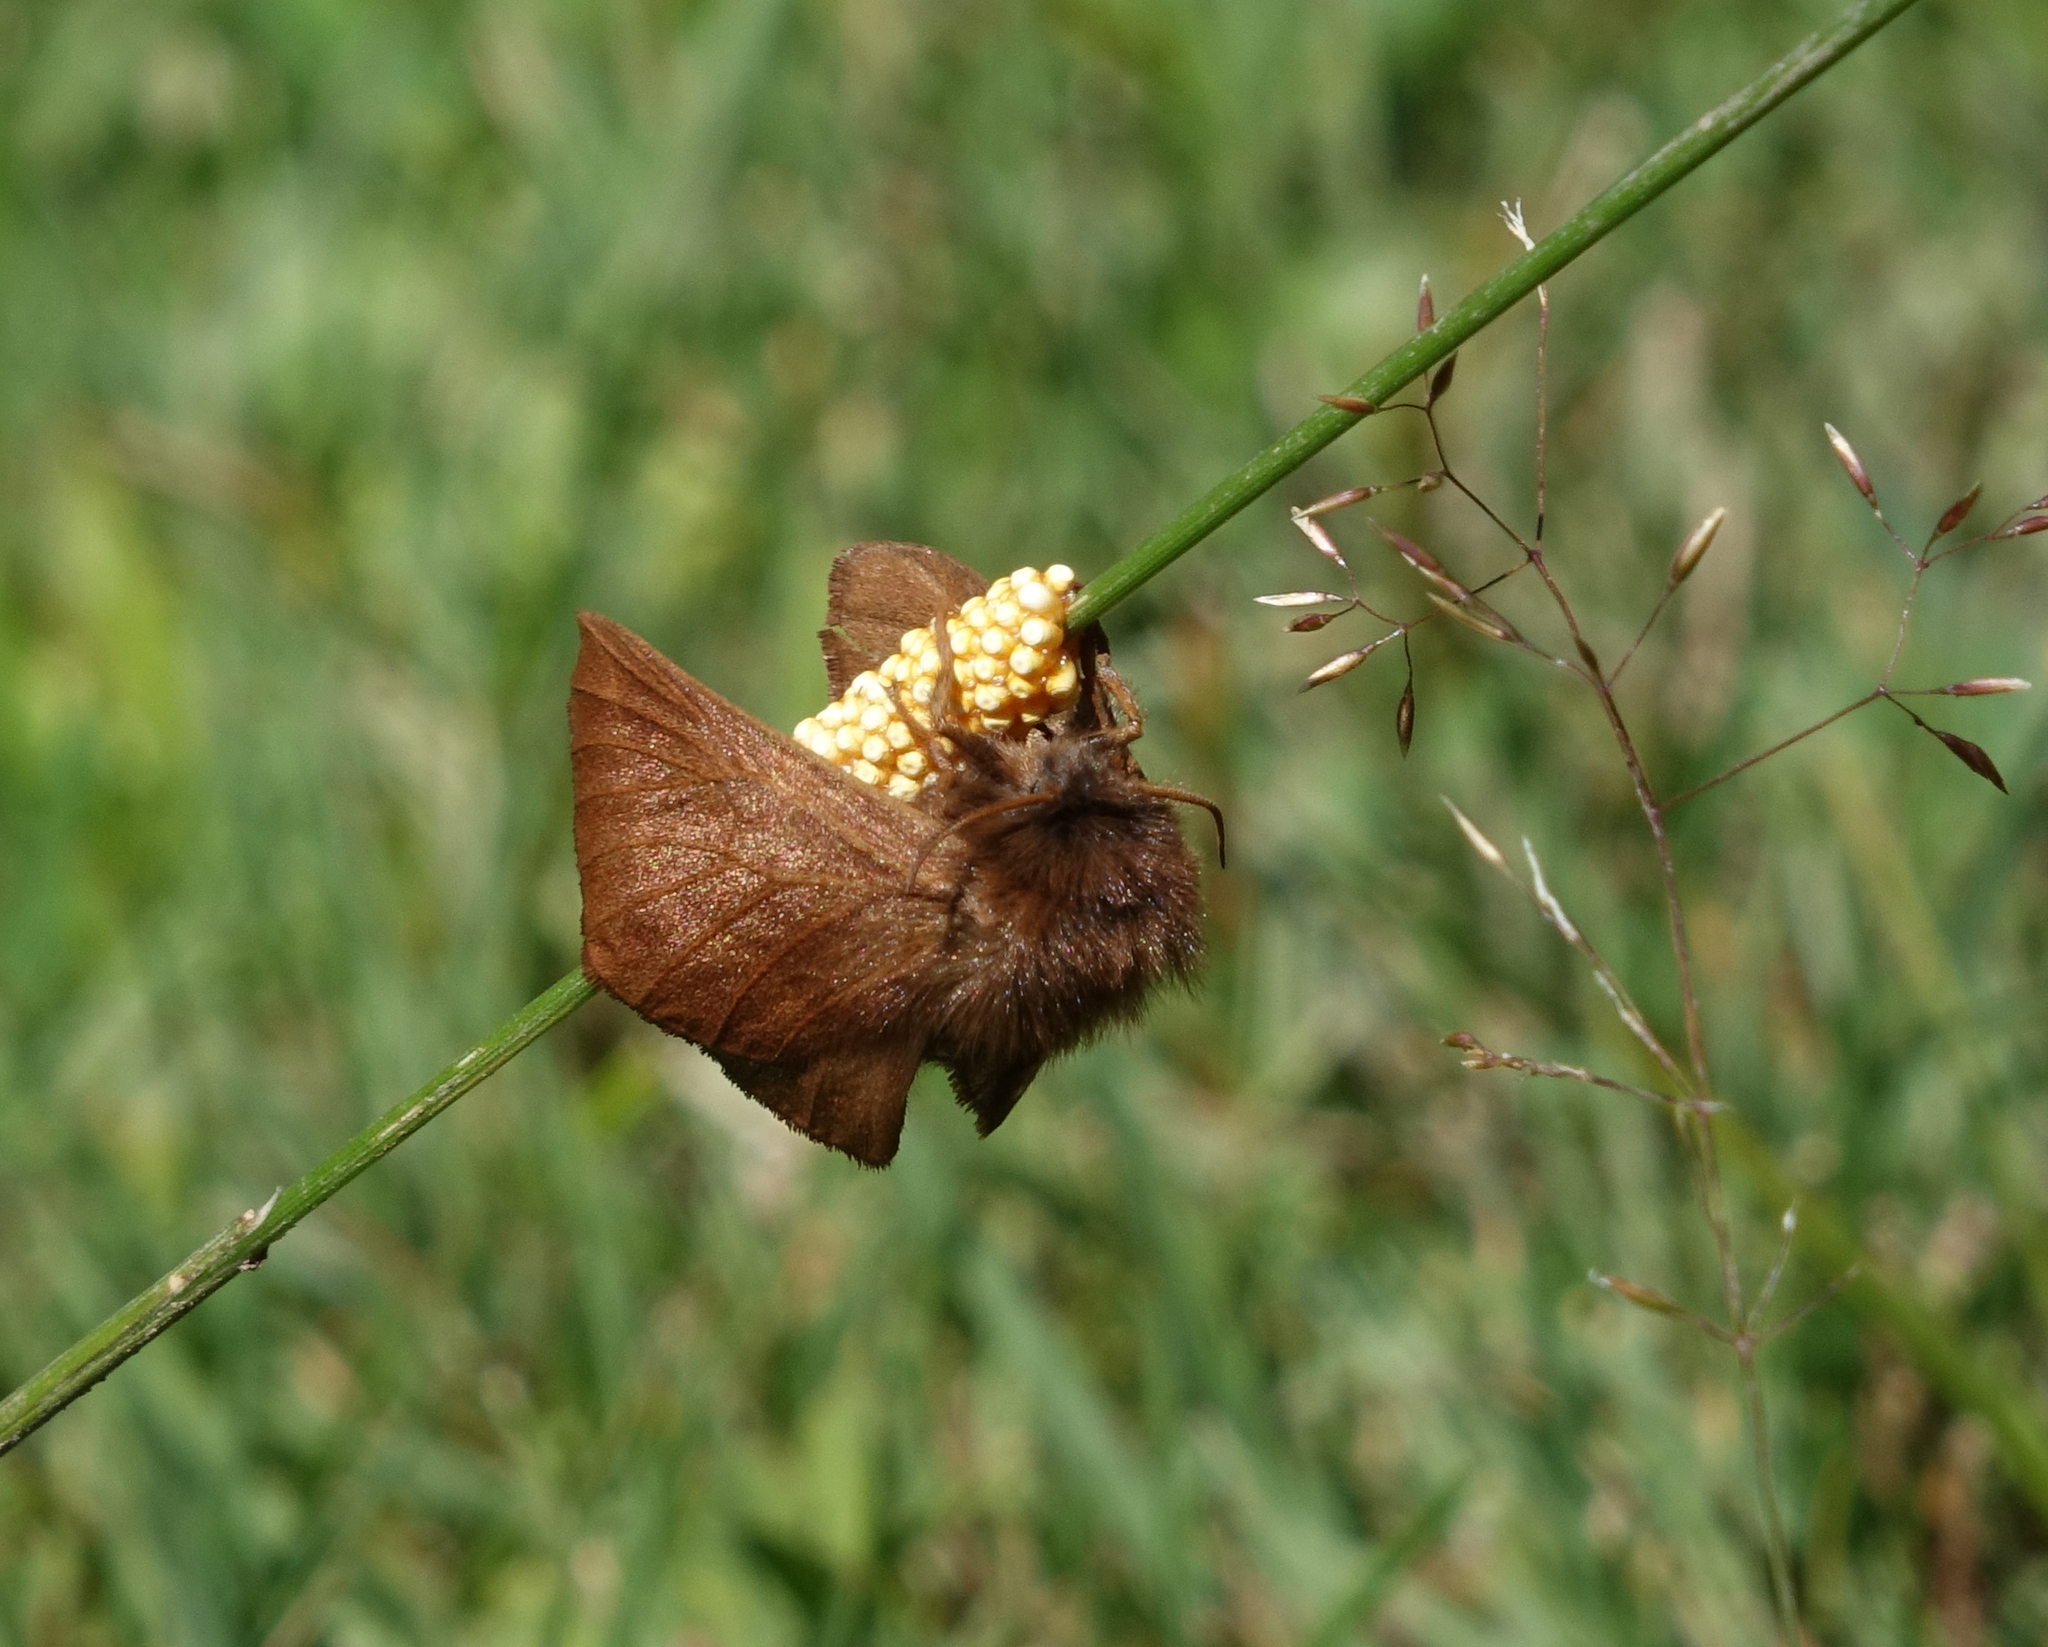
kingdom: Animalia
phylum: Arthropoda
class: Insecta
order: Lepidoptera
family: Lasiocampidae
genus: Malacosoma
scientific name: Malacosoma franconica
